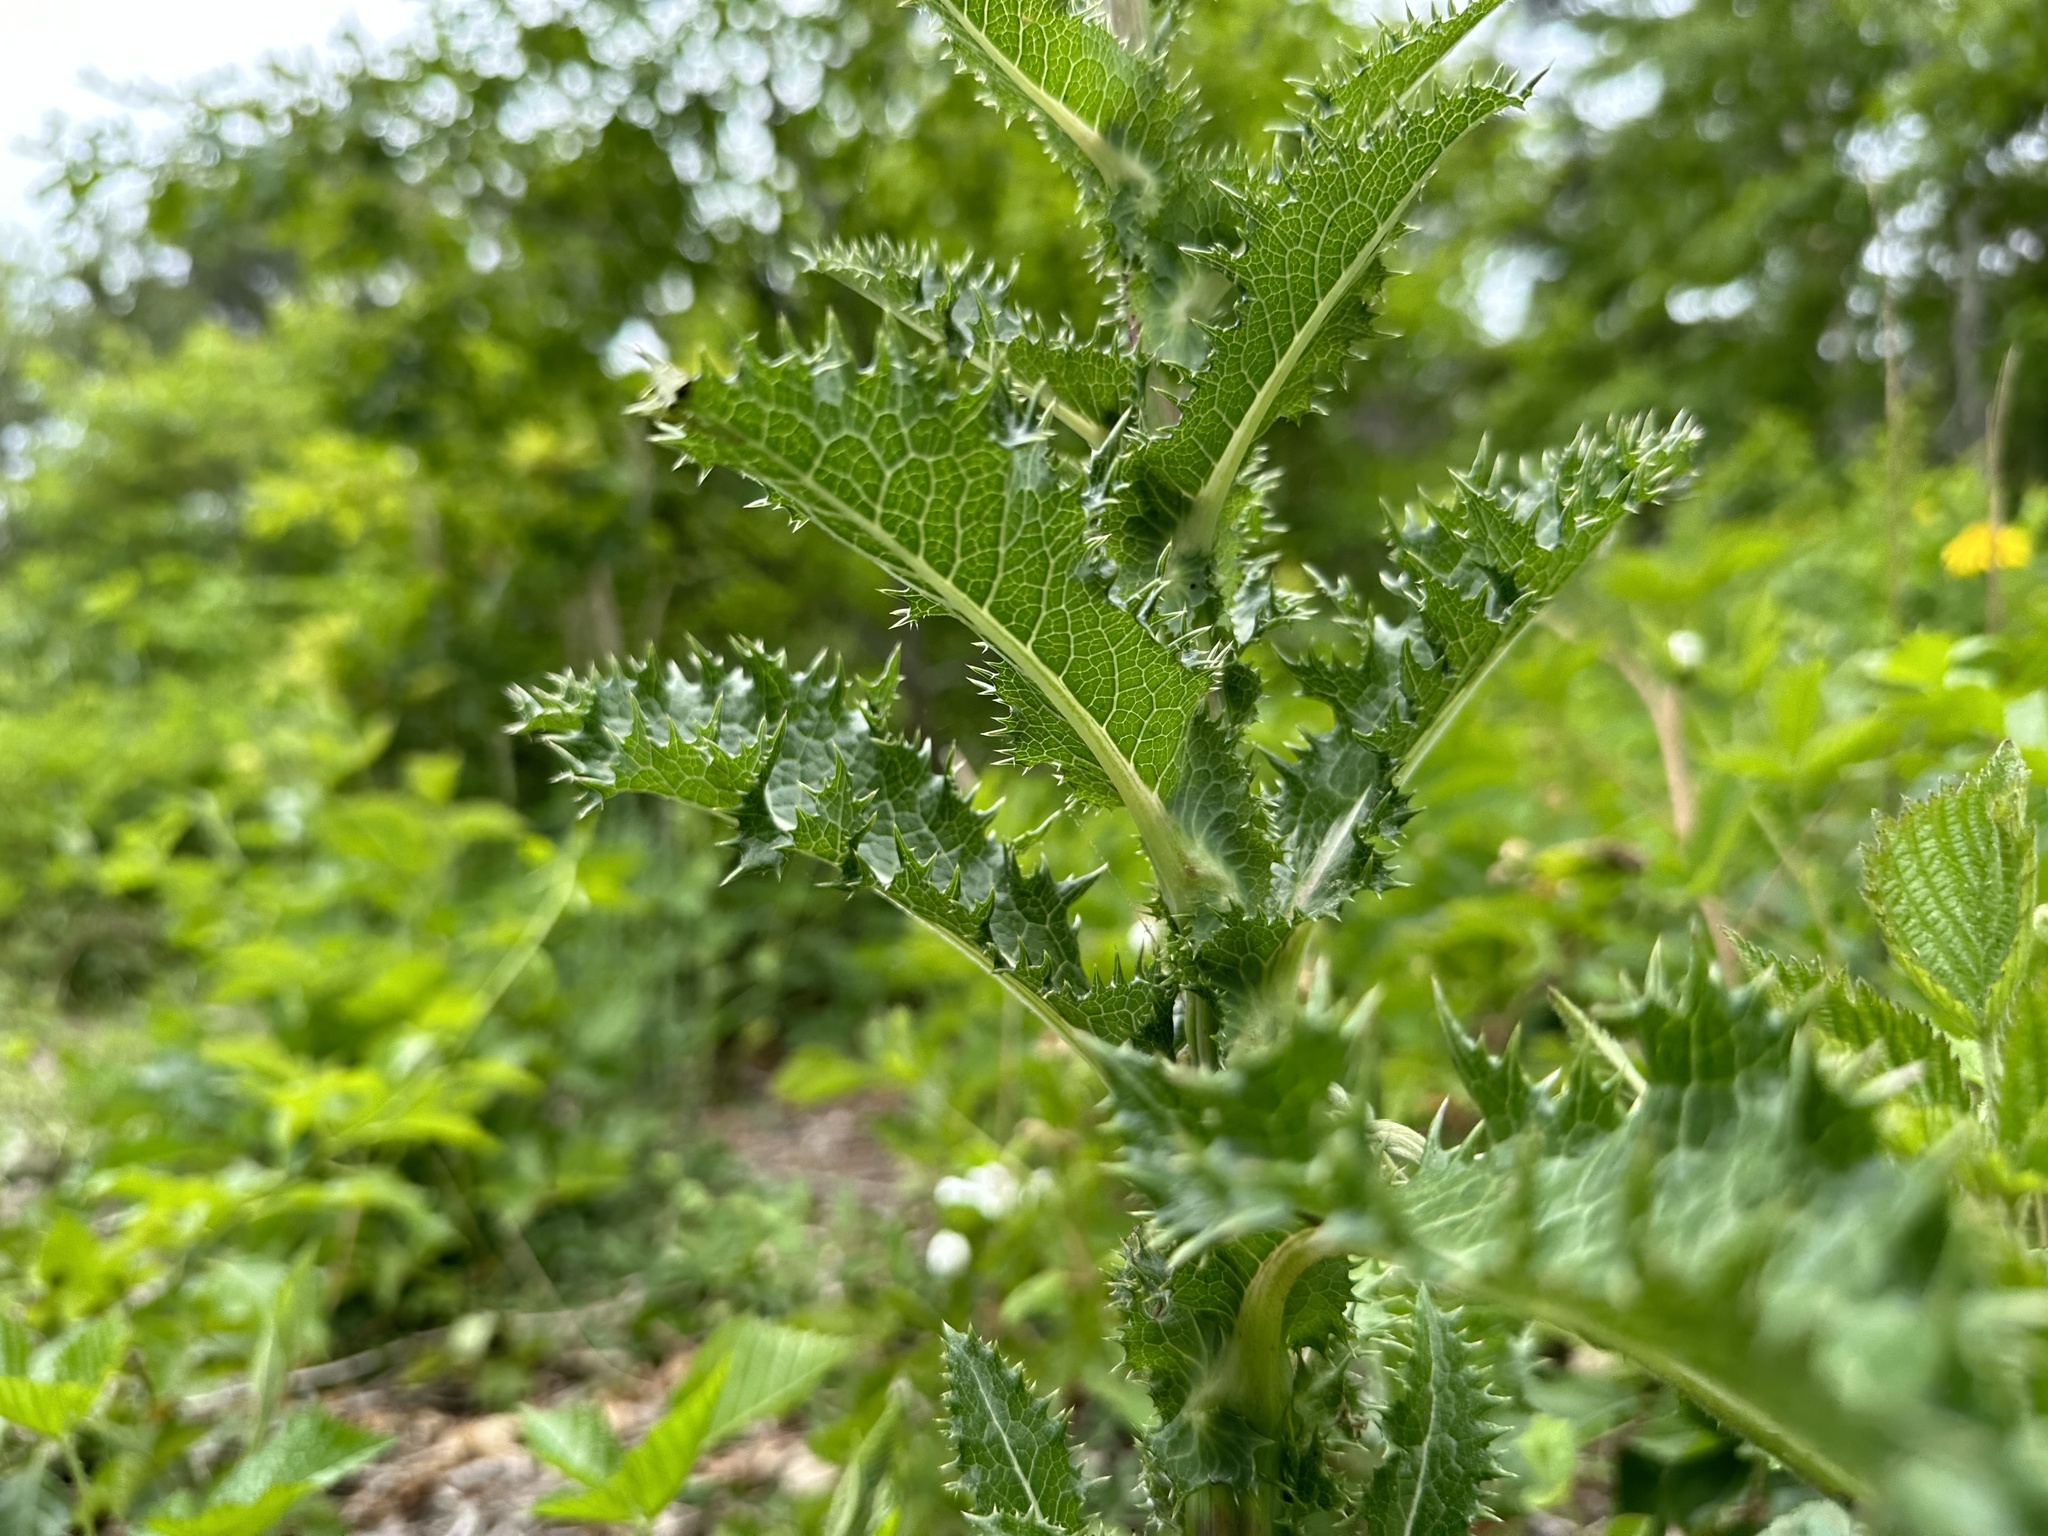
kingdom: Plantae
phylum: Tracheophyta
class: Magnoliopsida
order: Asterales
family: Asteraceae
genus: Sonchus
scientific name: Sonchus asper
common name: Prickly sow-thistle
